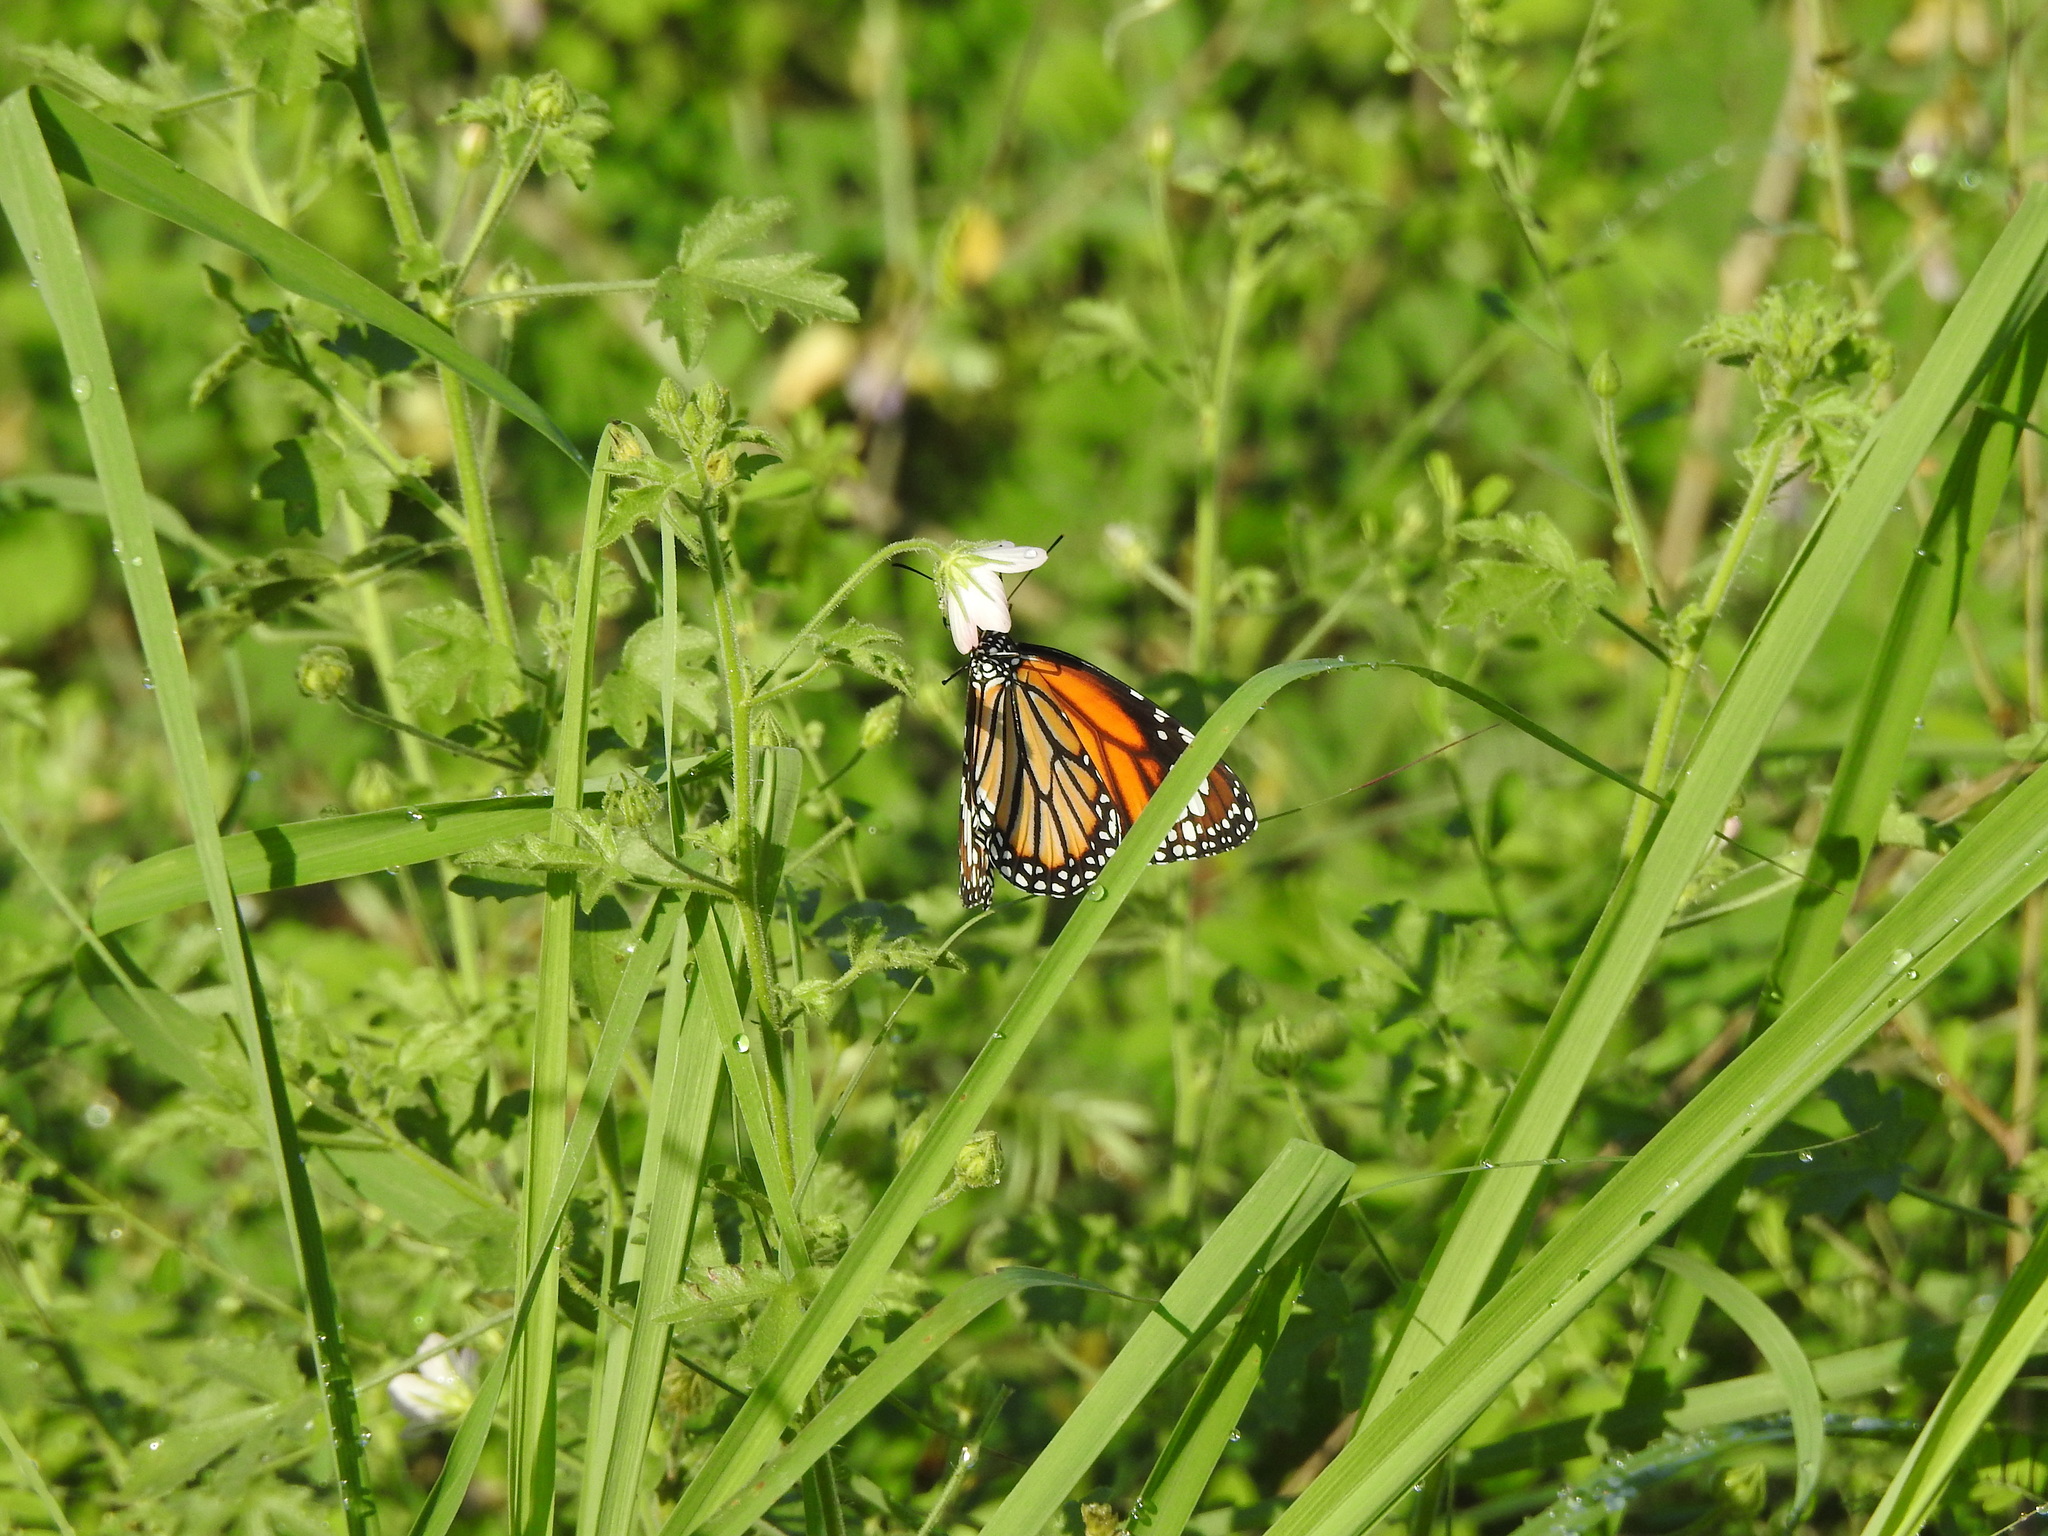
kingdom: Animalia
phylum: Arthropoda
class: Insecta
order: Lepidoptera
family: Nymphalidae
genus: Danaus
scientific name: Danaus genutia
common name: Common tiger butterfly
